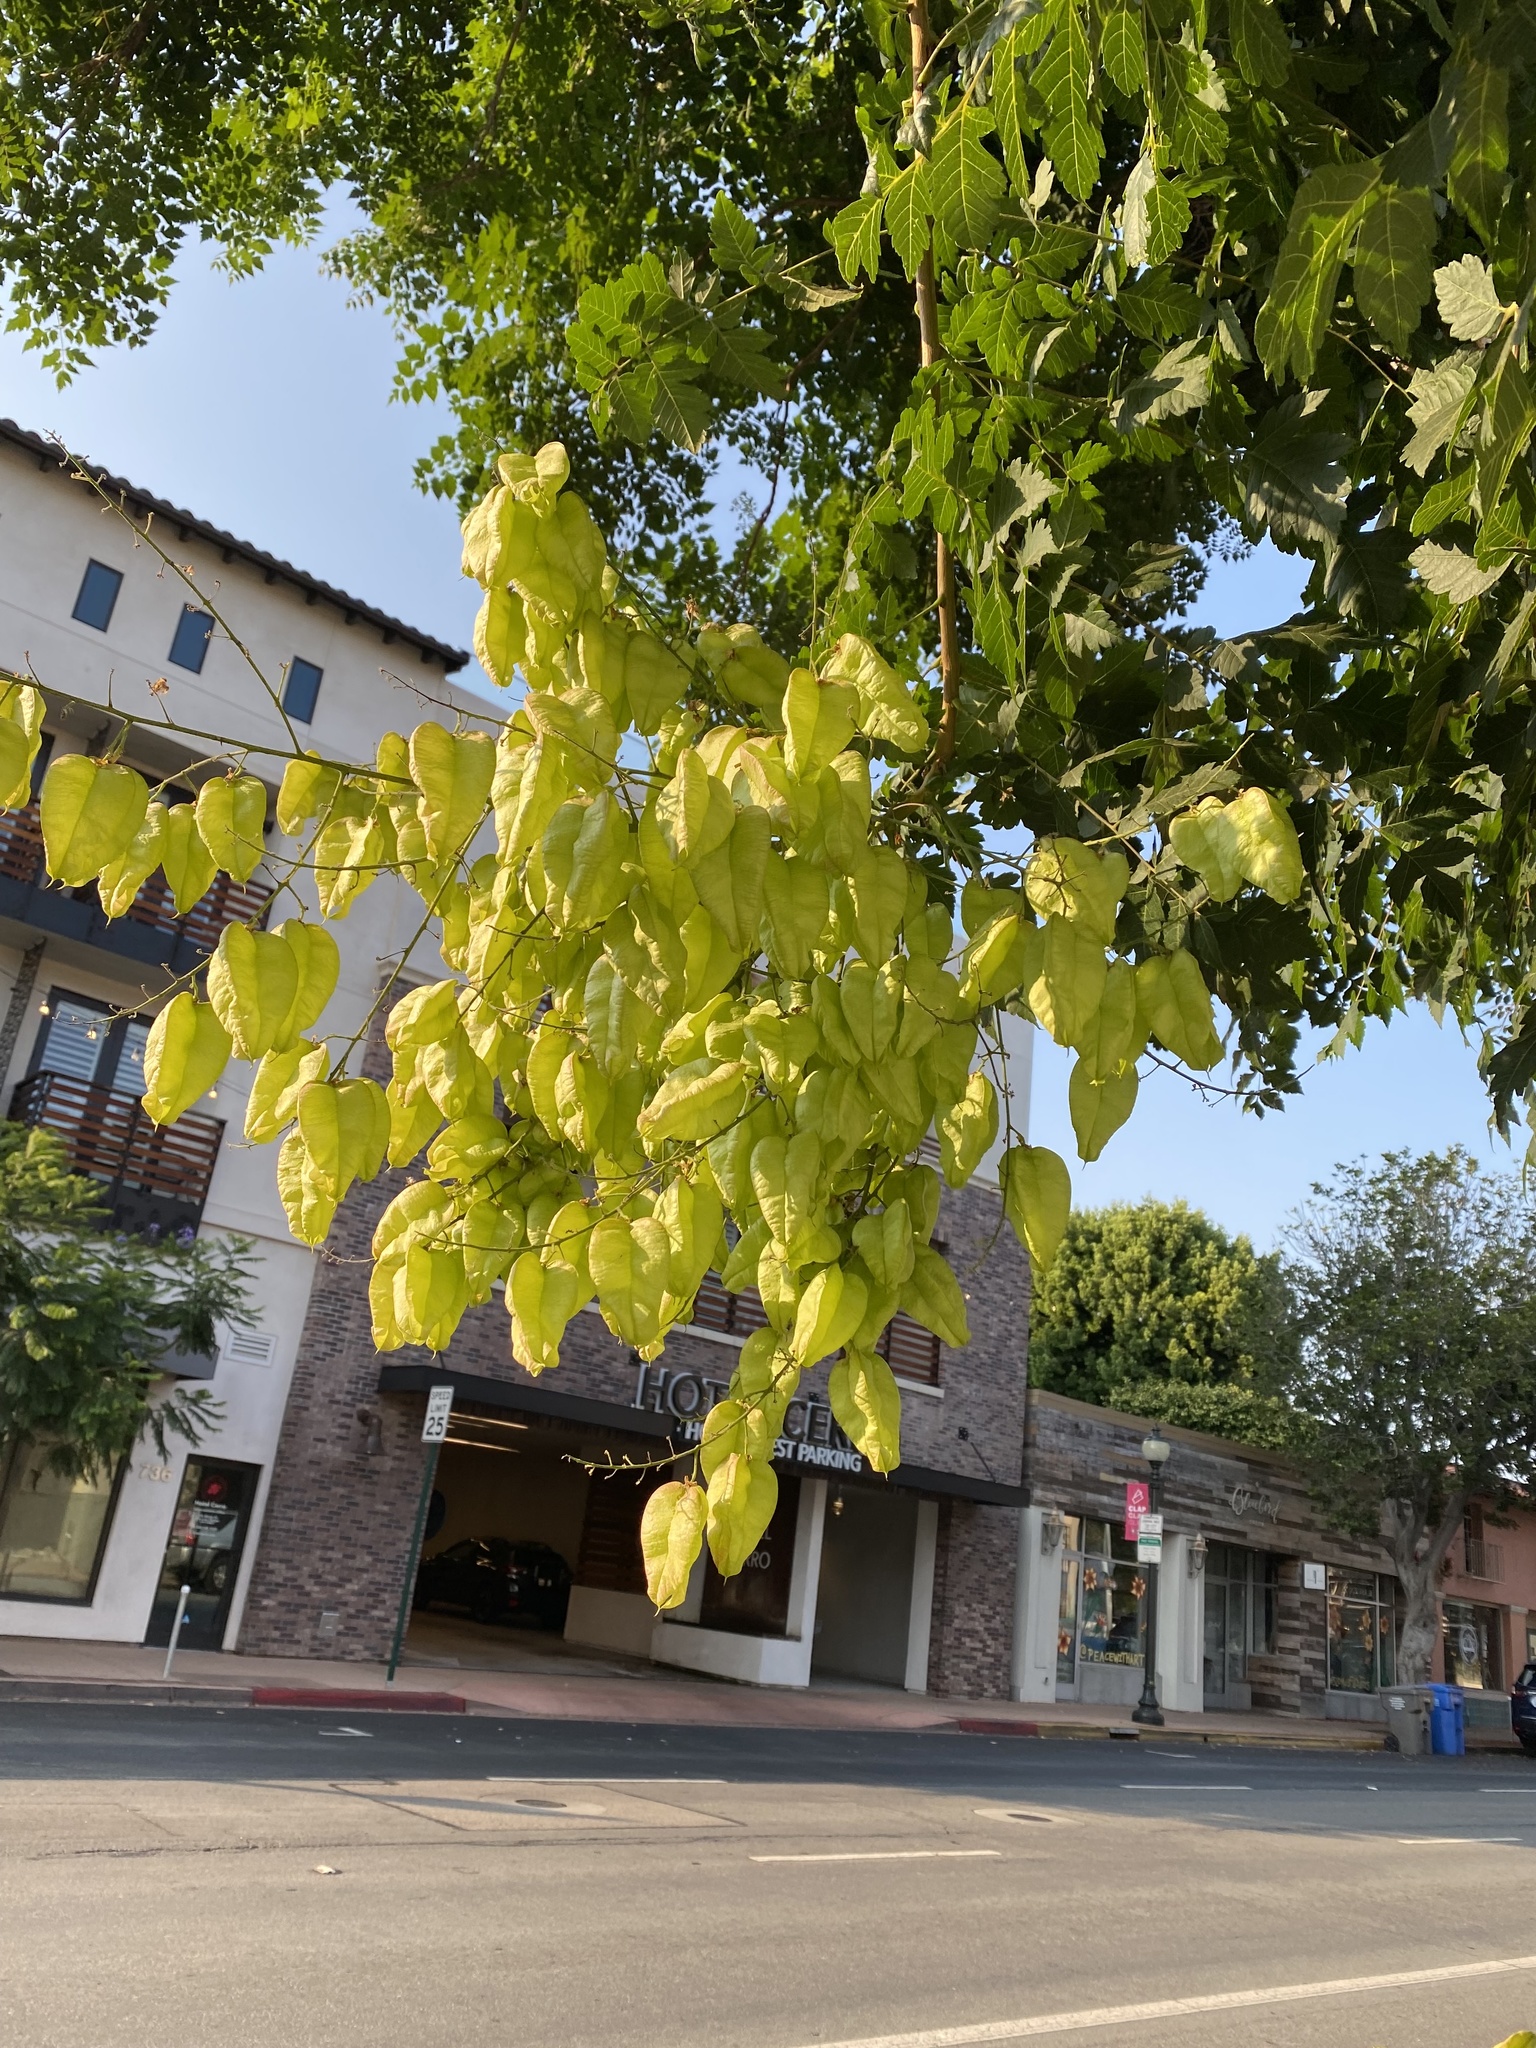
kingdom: Plantae
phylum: Tracheophyta
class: Magnoliopsida
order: Sapindales
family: Sapindaceae
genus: Koelreuteria
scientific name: Koelreuteria paniculata
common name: Pride-of-india
